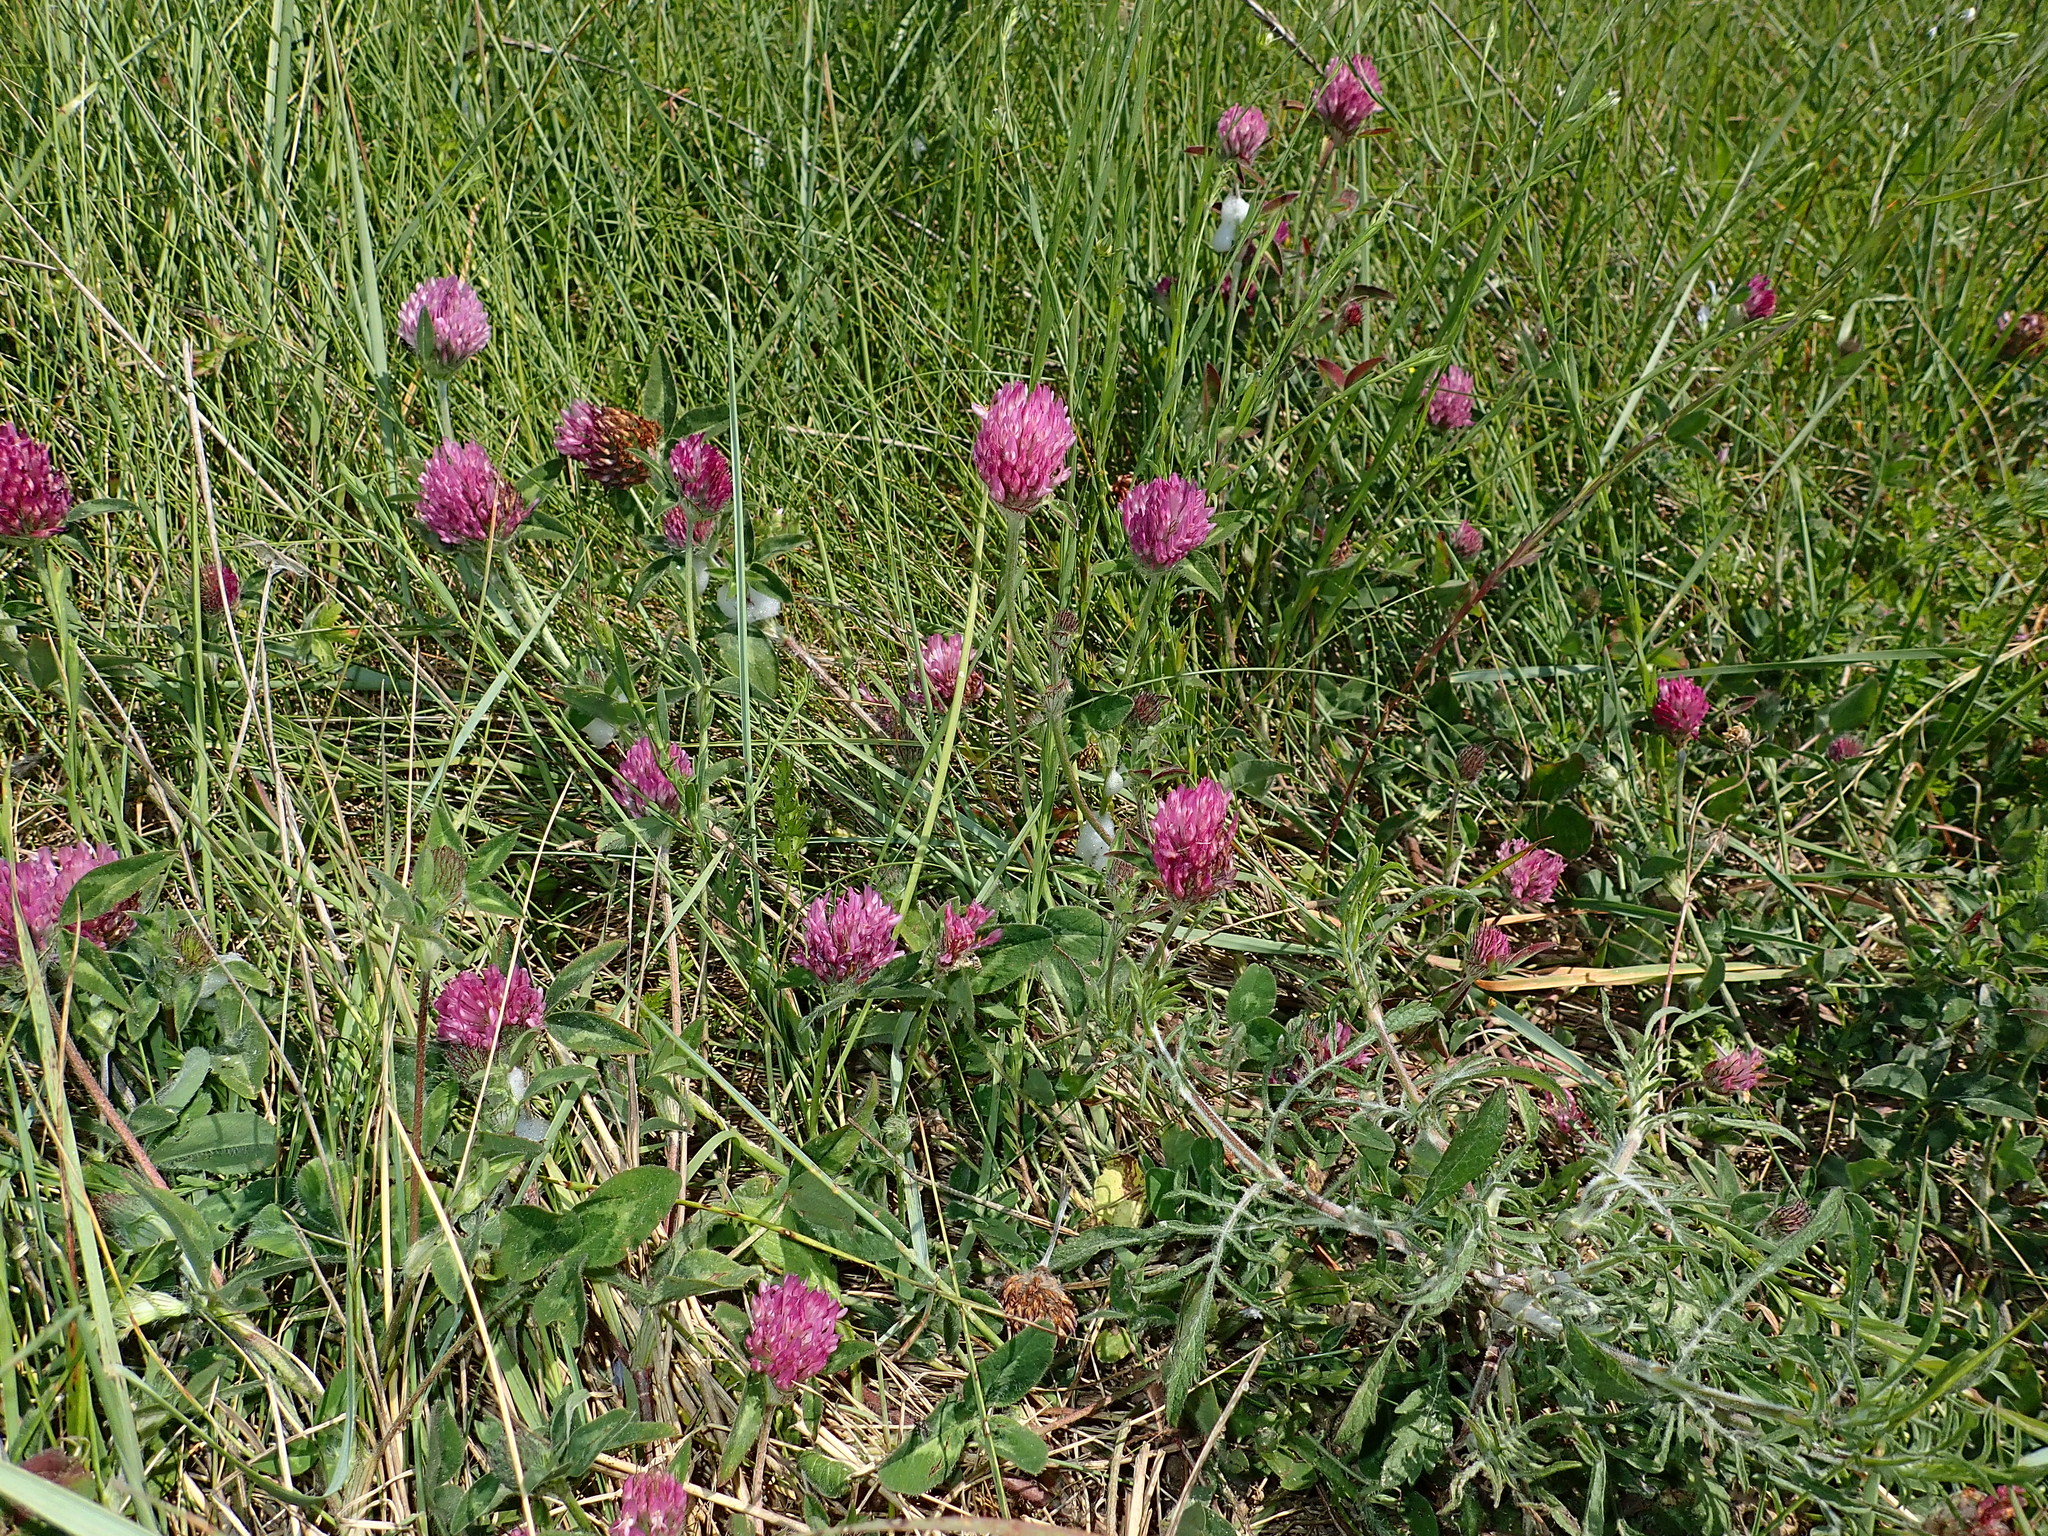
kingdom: Plantae
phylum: Tracheophyta
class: Magnoliopsida
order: Fabales
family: Fabaceae
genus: Trifolium
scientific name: Trifolium pratense
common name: Red clover
